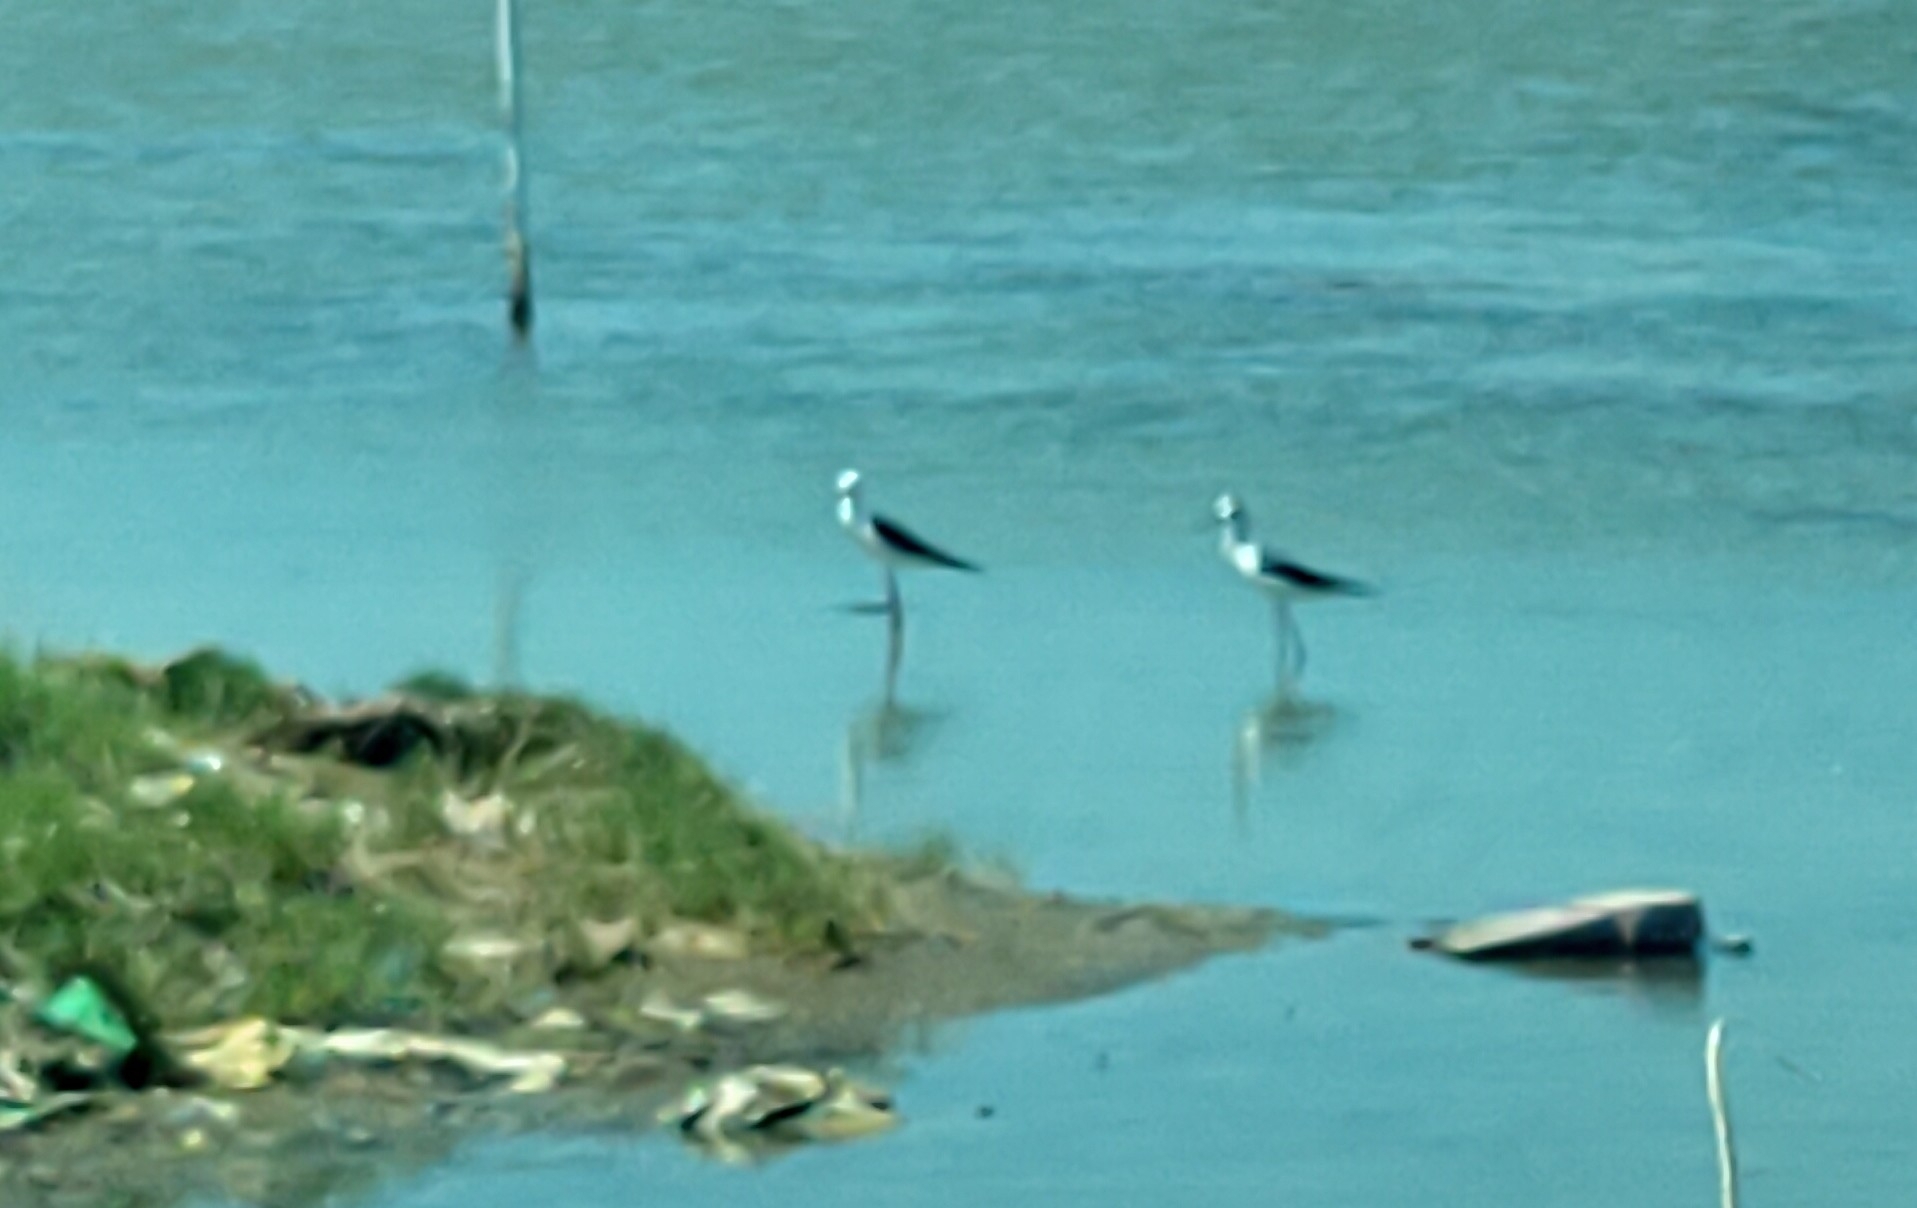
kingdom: Animalia
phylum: Chordata
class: Aves
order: Charadriiformes
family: Recurvirostridae
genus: Himantopus
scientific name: Himantopus himantopus
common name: Black-winged stilt
